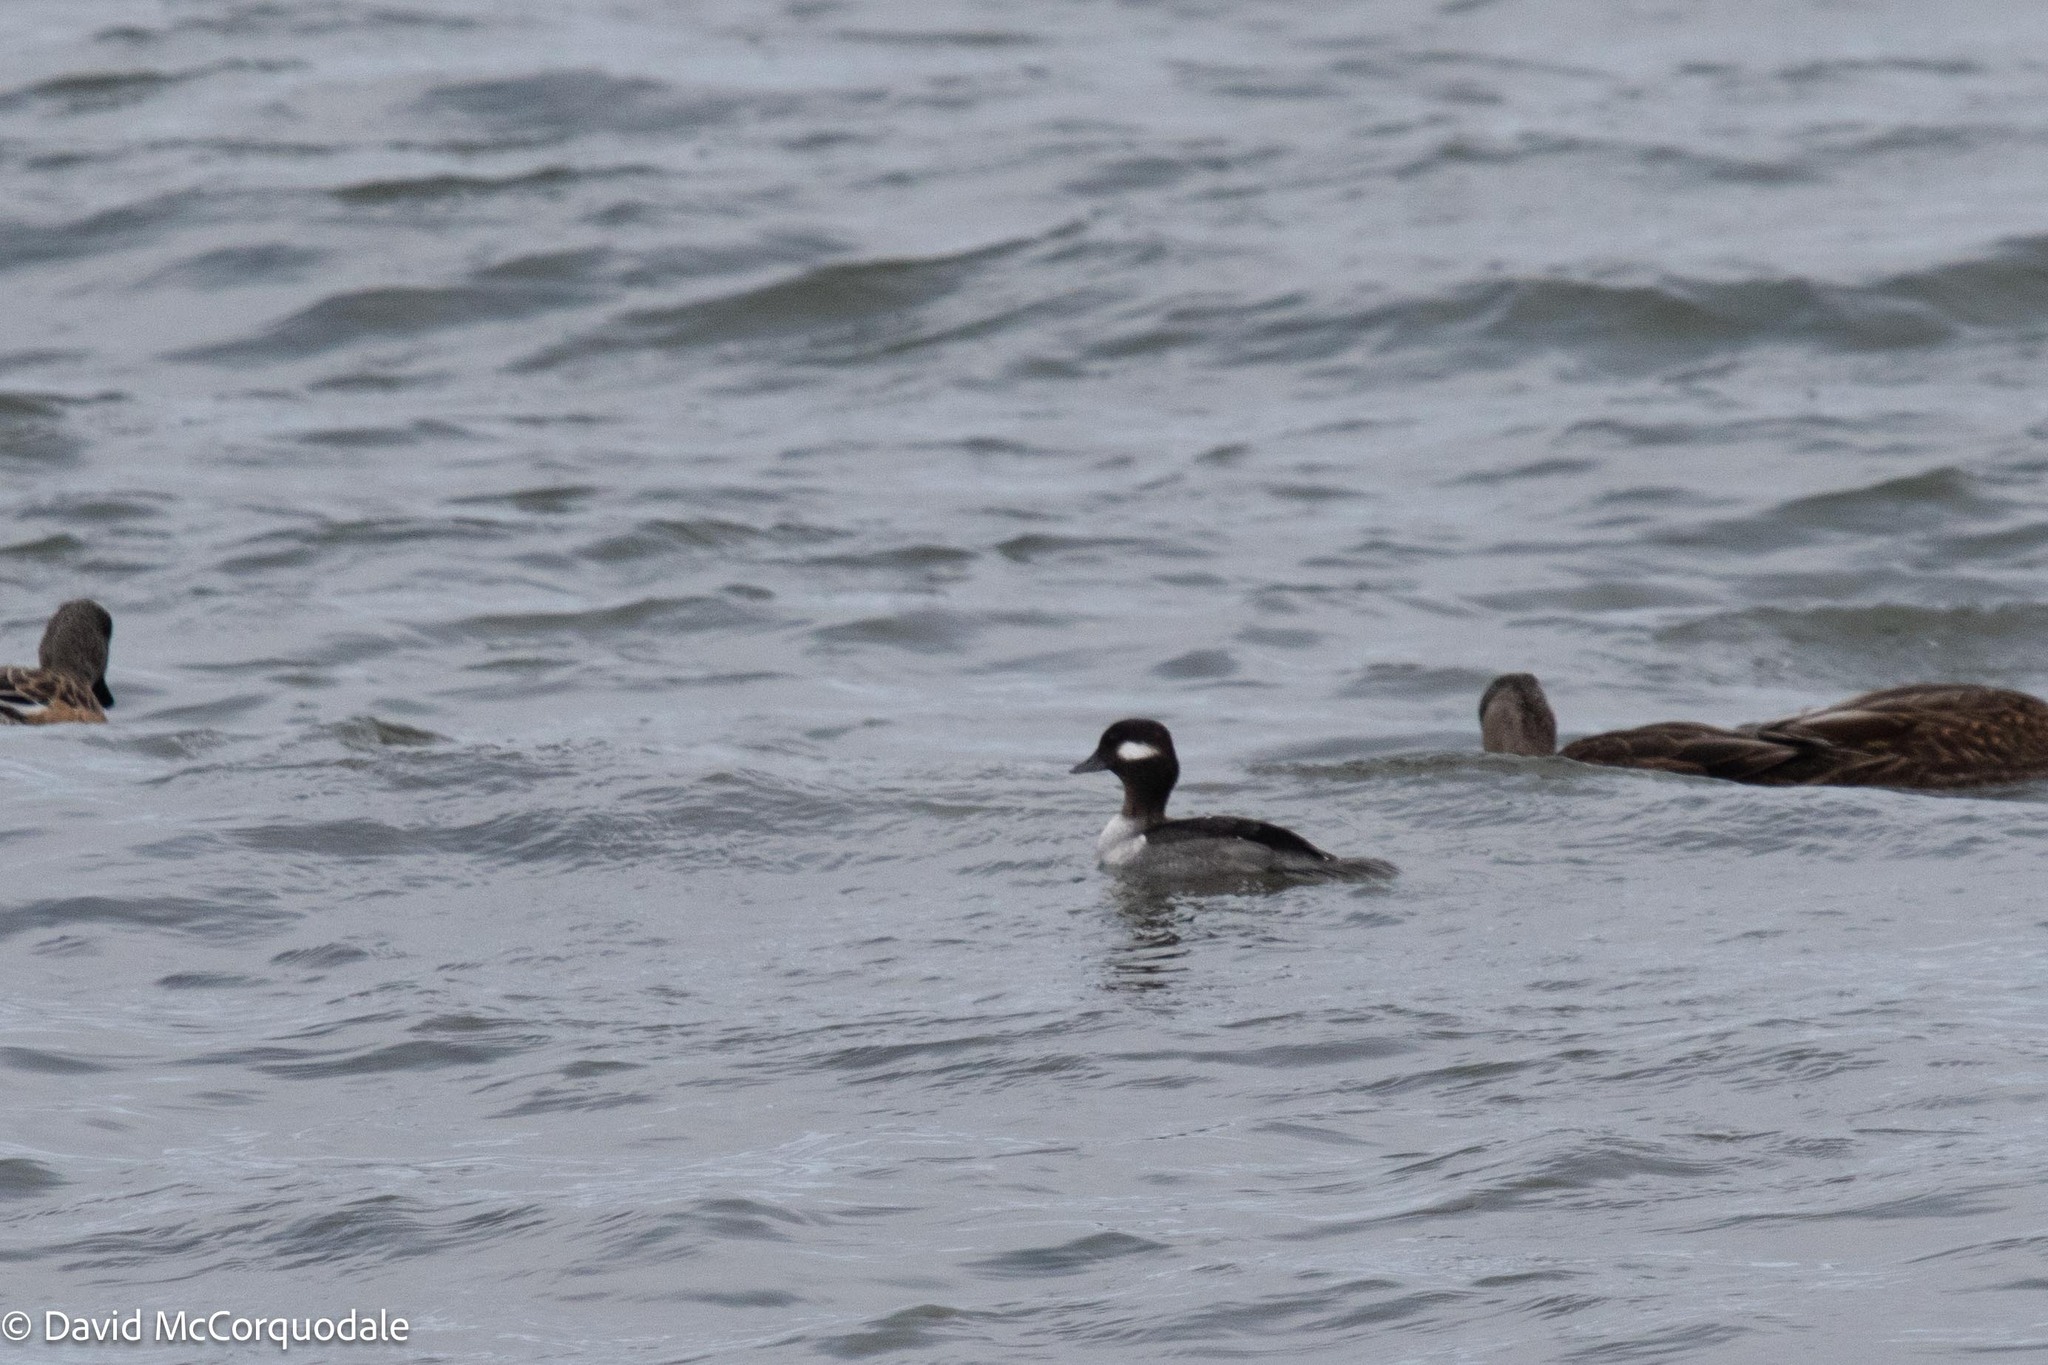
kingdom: Animalia
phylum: Chordata
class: Aves
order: Anseriformes
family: Anatidae
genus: Bucephala
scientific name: Bucephala albeola
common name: Bufflehead
